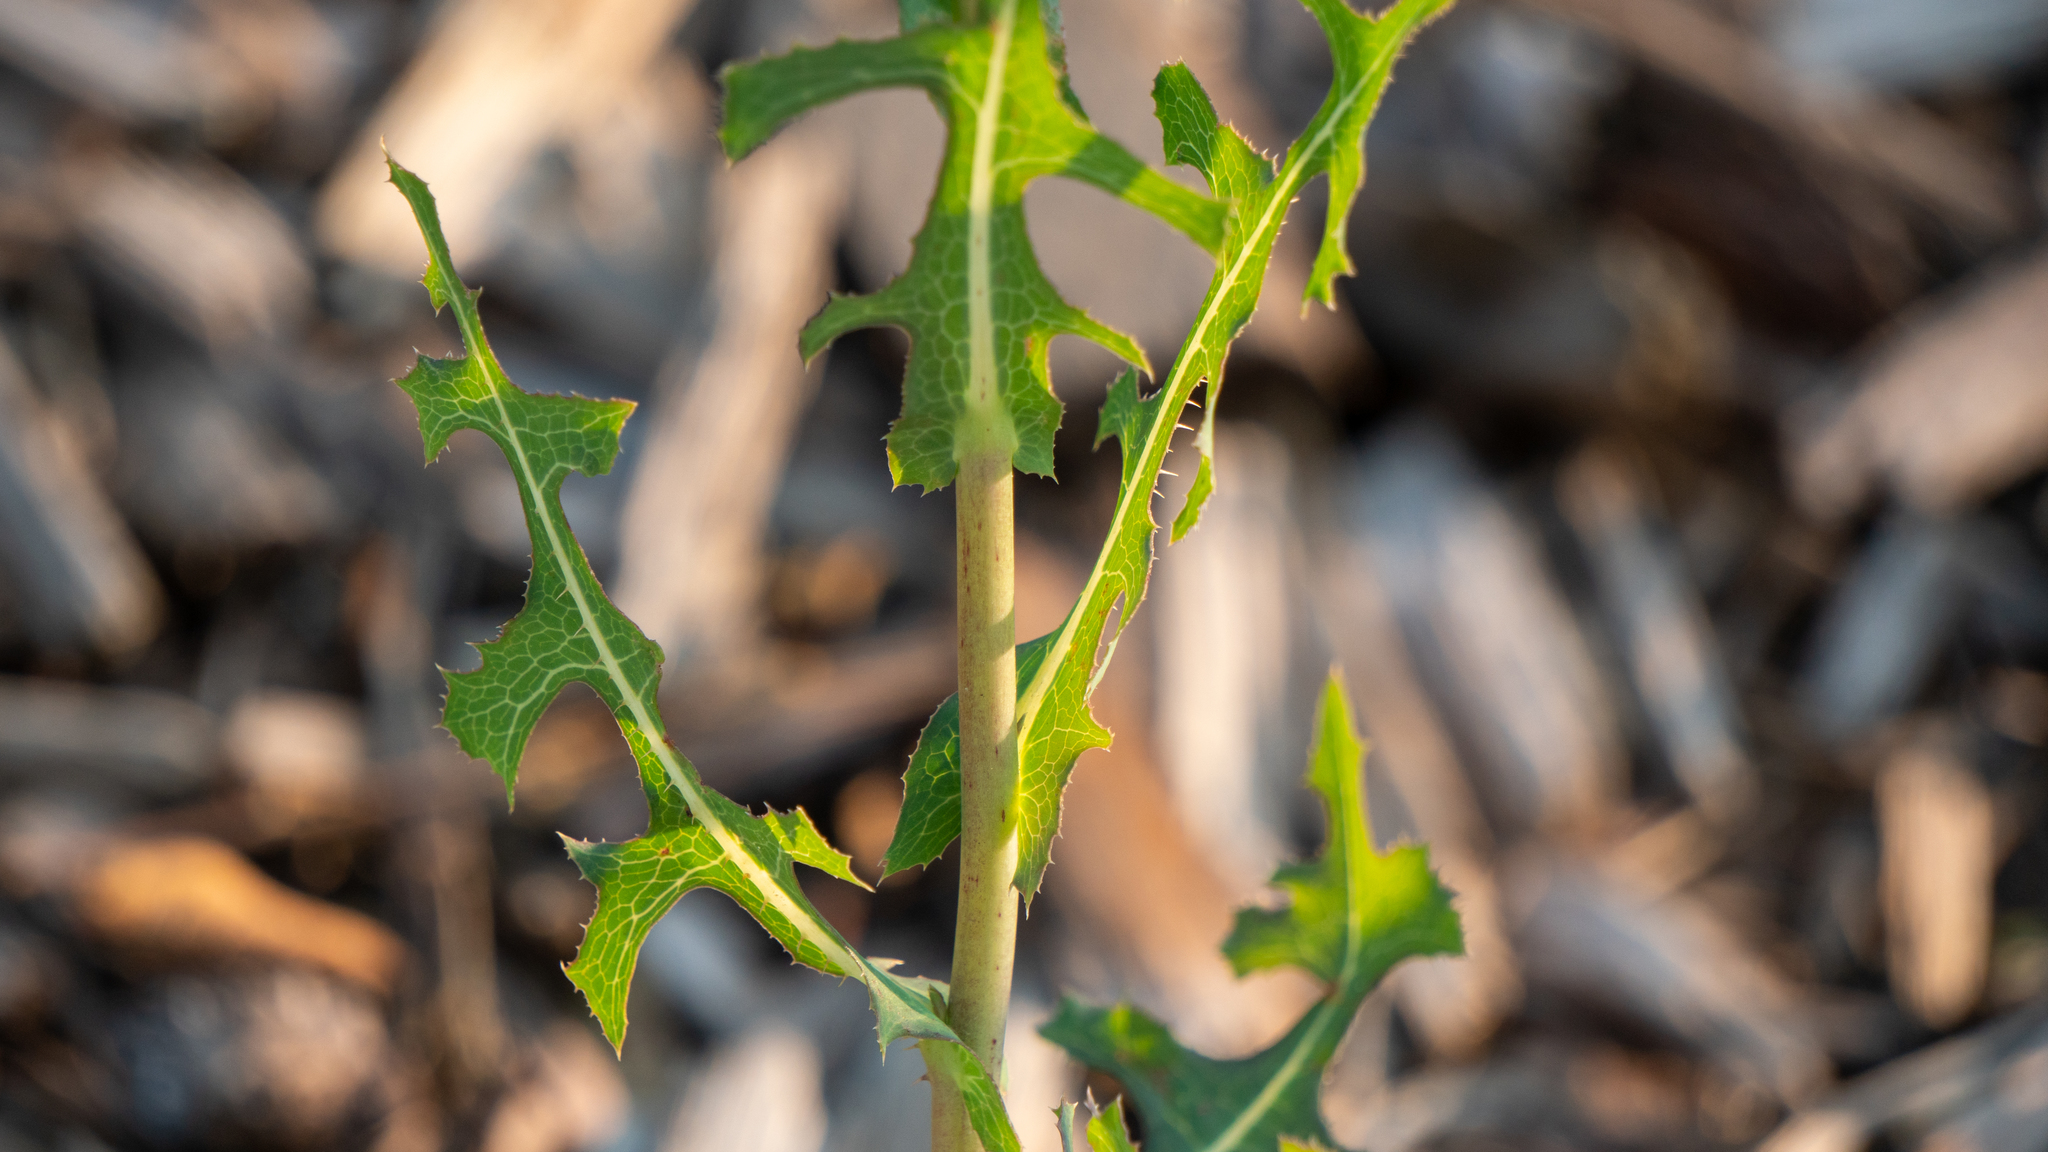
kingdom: Plantae
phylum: Tracheophyta
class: Magnoliopsida
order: Asterales
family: Asteraceae
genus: Lactuca
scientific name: Lactuca serriola
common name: Prickly lettuce
